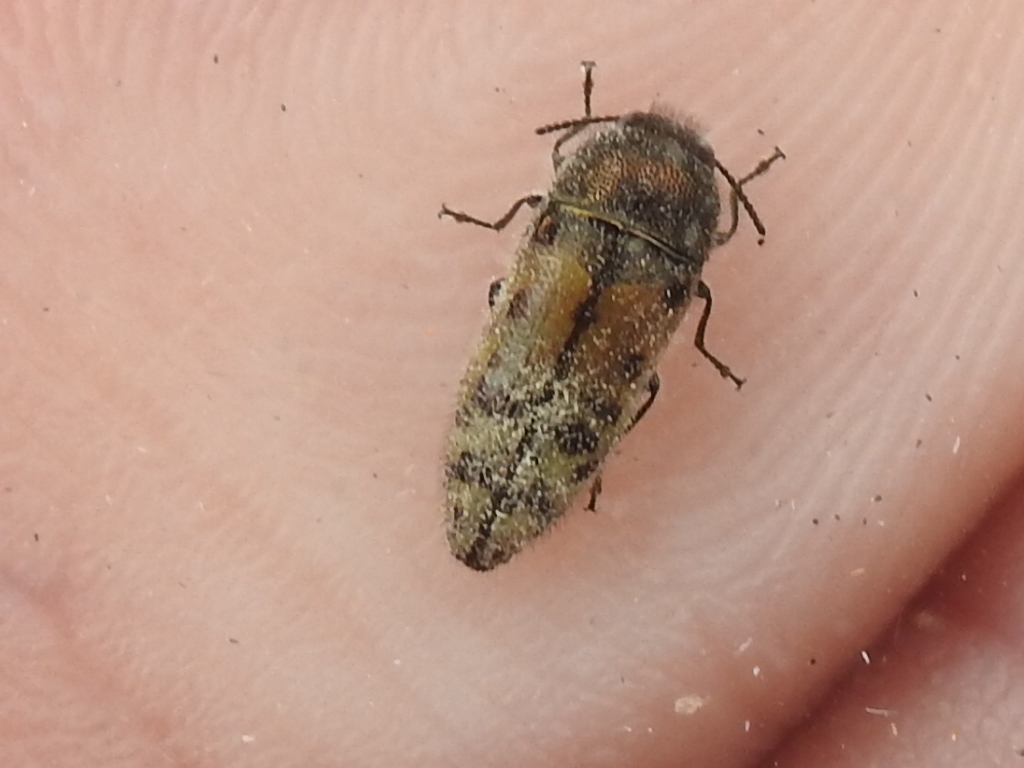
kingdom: Animalia
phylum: Arthropoda
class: Insecta
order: Coleoptera
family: Buprestidae
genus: Acmaeodera
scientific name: Acmaeodera mixta
